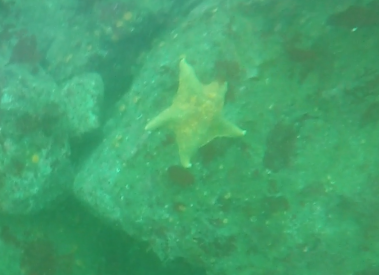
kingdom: Animalia
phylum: Echinodermata
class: Asteroidea
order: Valvatida
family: Asterinidae
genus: Patiria
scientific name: Patiria miniata
